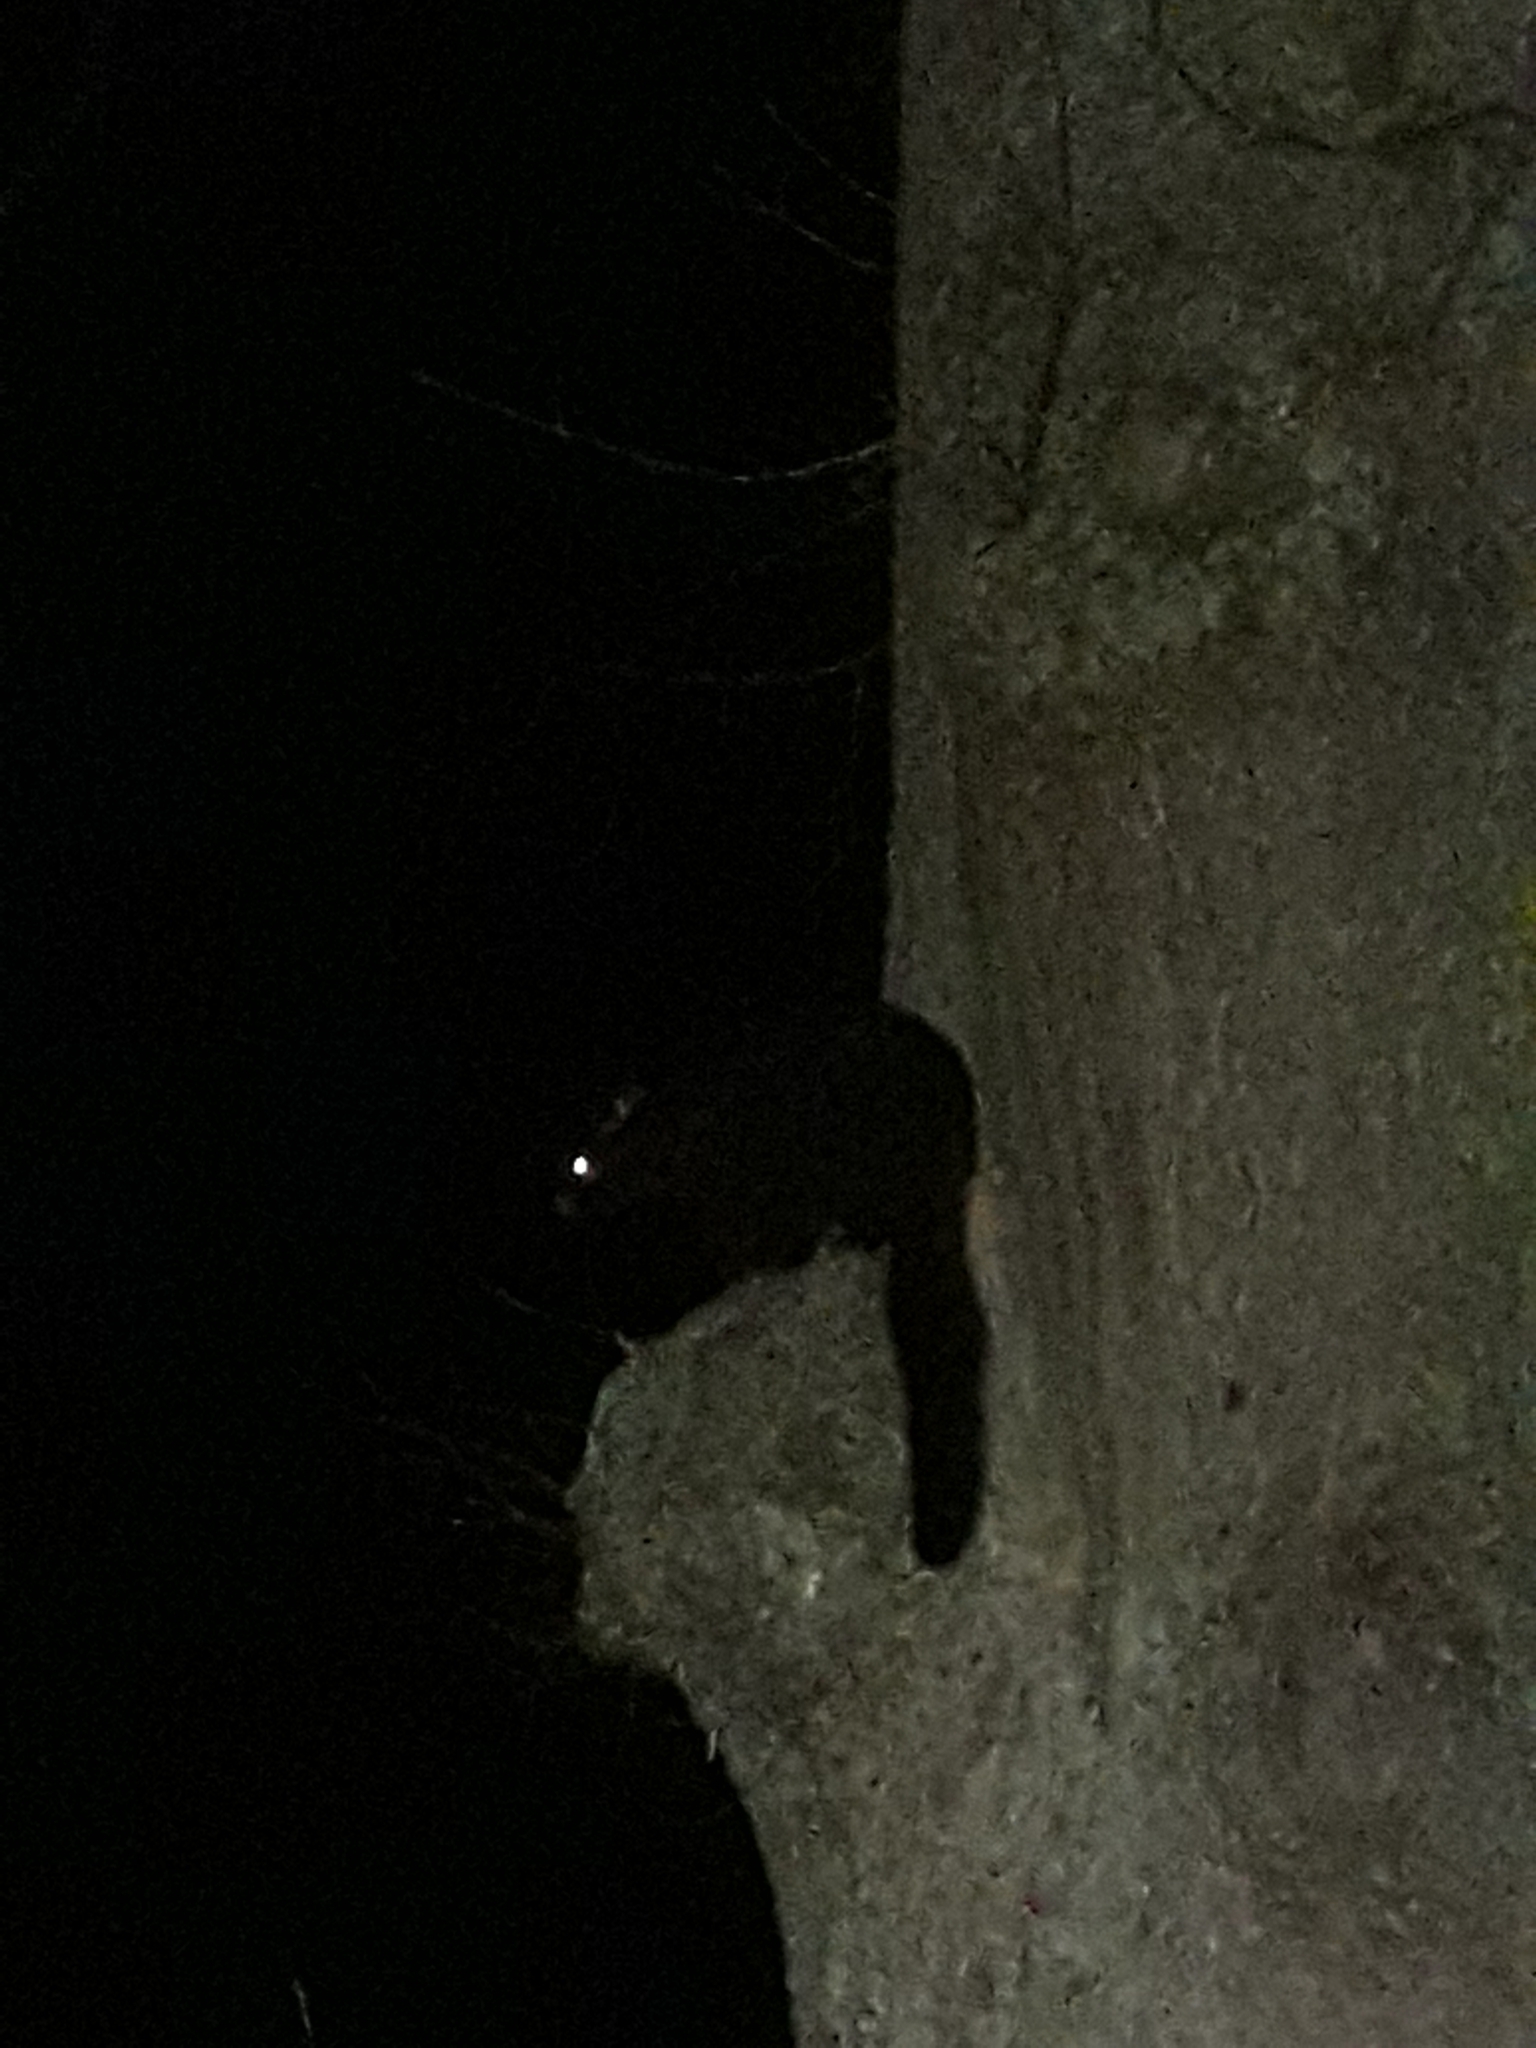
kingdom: Animalia
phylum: Chordata
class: Mammalia
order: Diprotodontia
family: Phalangeridae
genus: Trichosurus
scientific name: Trichosurus vulpecula
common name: Common brushtail
